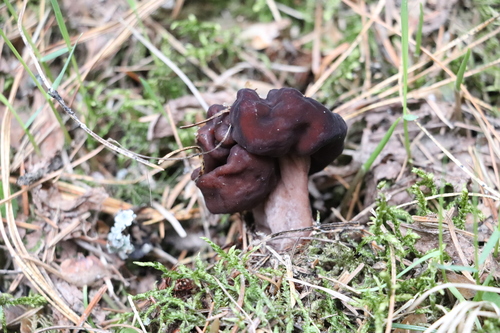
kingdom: Fungi
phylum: Ascomycota
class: Pezizomycetes
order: Pezizales
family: Discinaceae
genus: Gyromitra
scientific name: Gyromitra esculenta
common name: False morel
